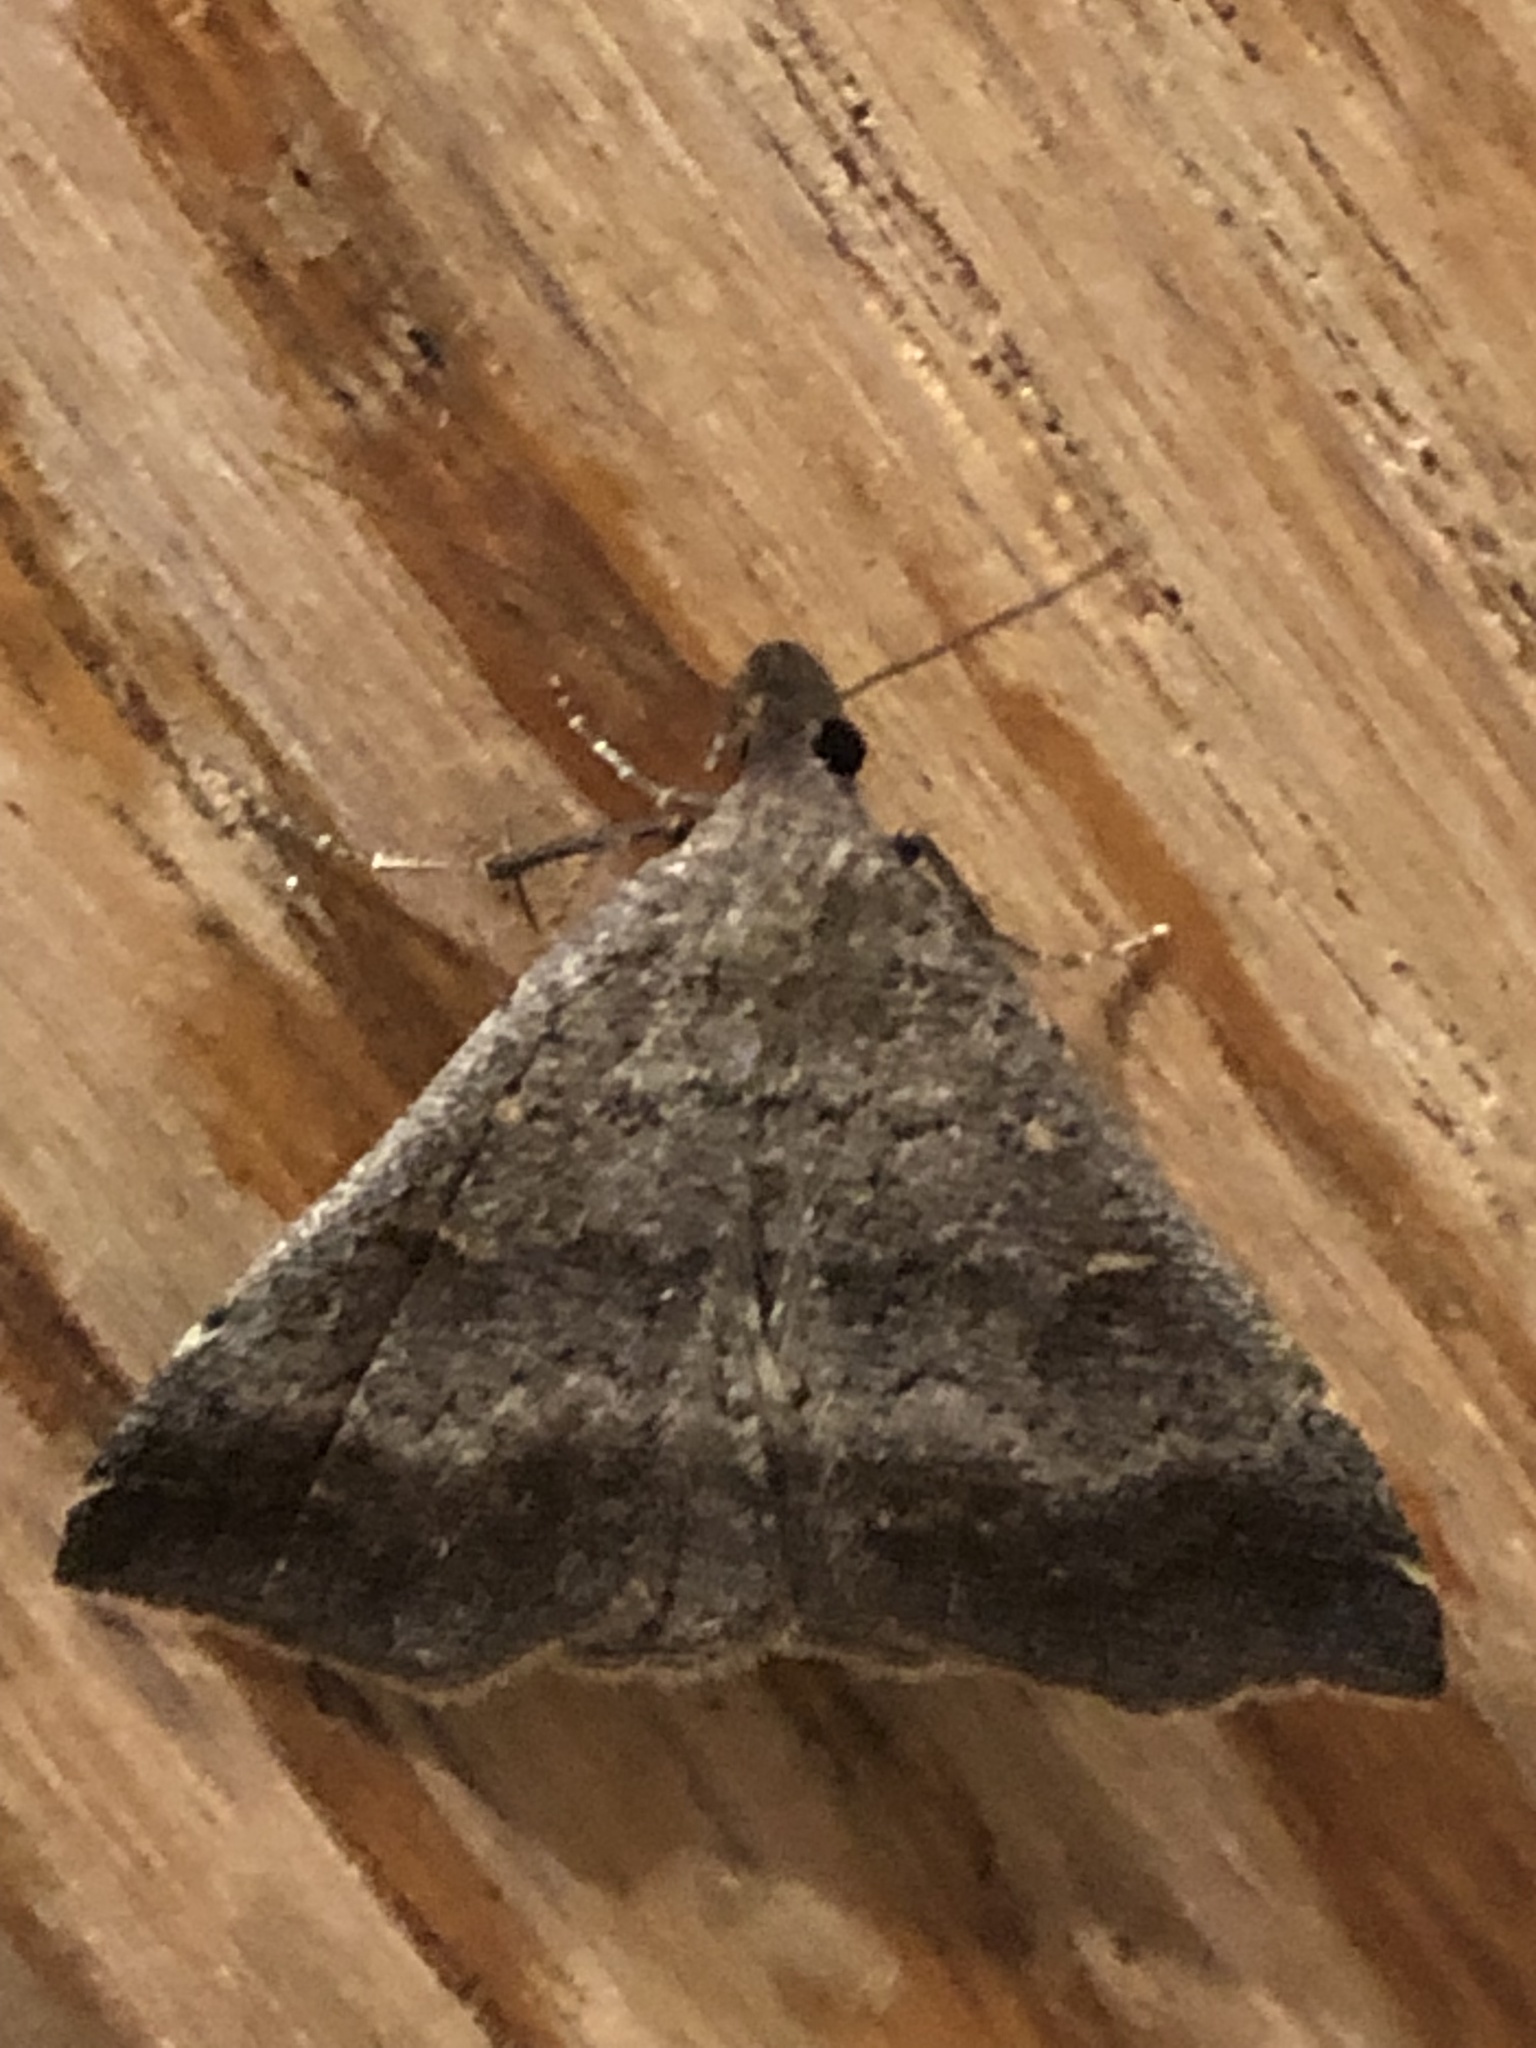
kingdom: Animalia
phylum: Arthropoda
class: Insecta
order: Lepidoptera
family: Erebidae
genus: Tetanolita
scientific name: Tetanolita palligera
